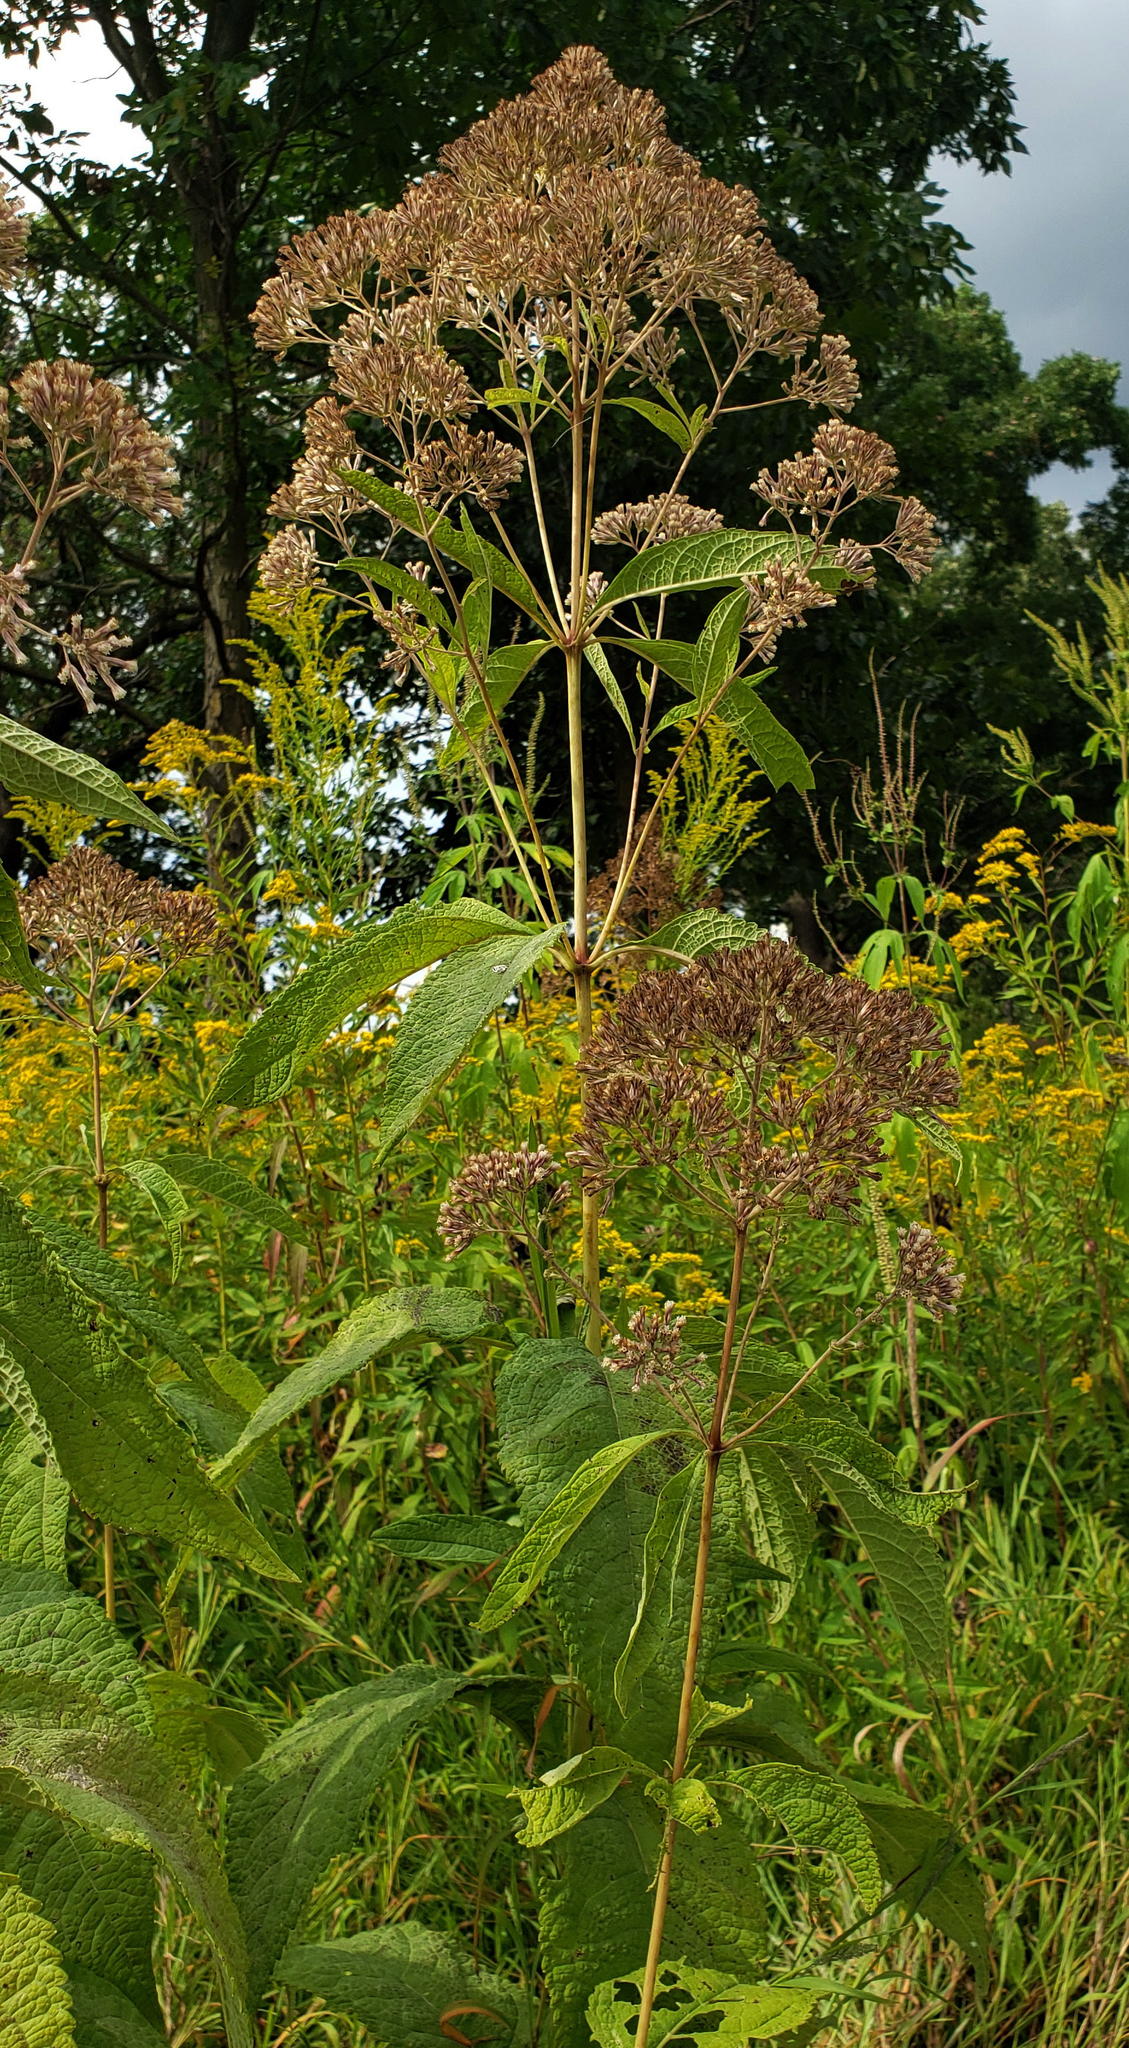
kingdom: Plantae
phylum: Tracheophyta
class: Magnoliopsida
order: Asterales
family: Asteraceae
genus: Eutrochium
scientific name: Eutrochium purpureum
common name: Gravelroot
